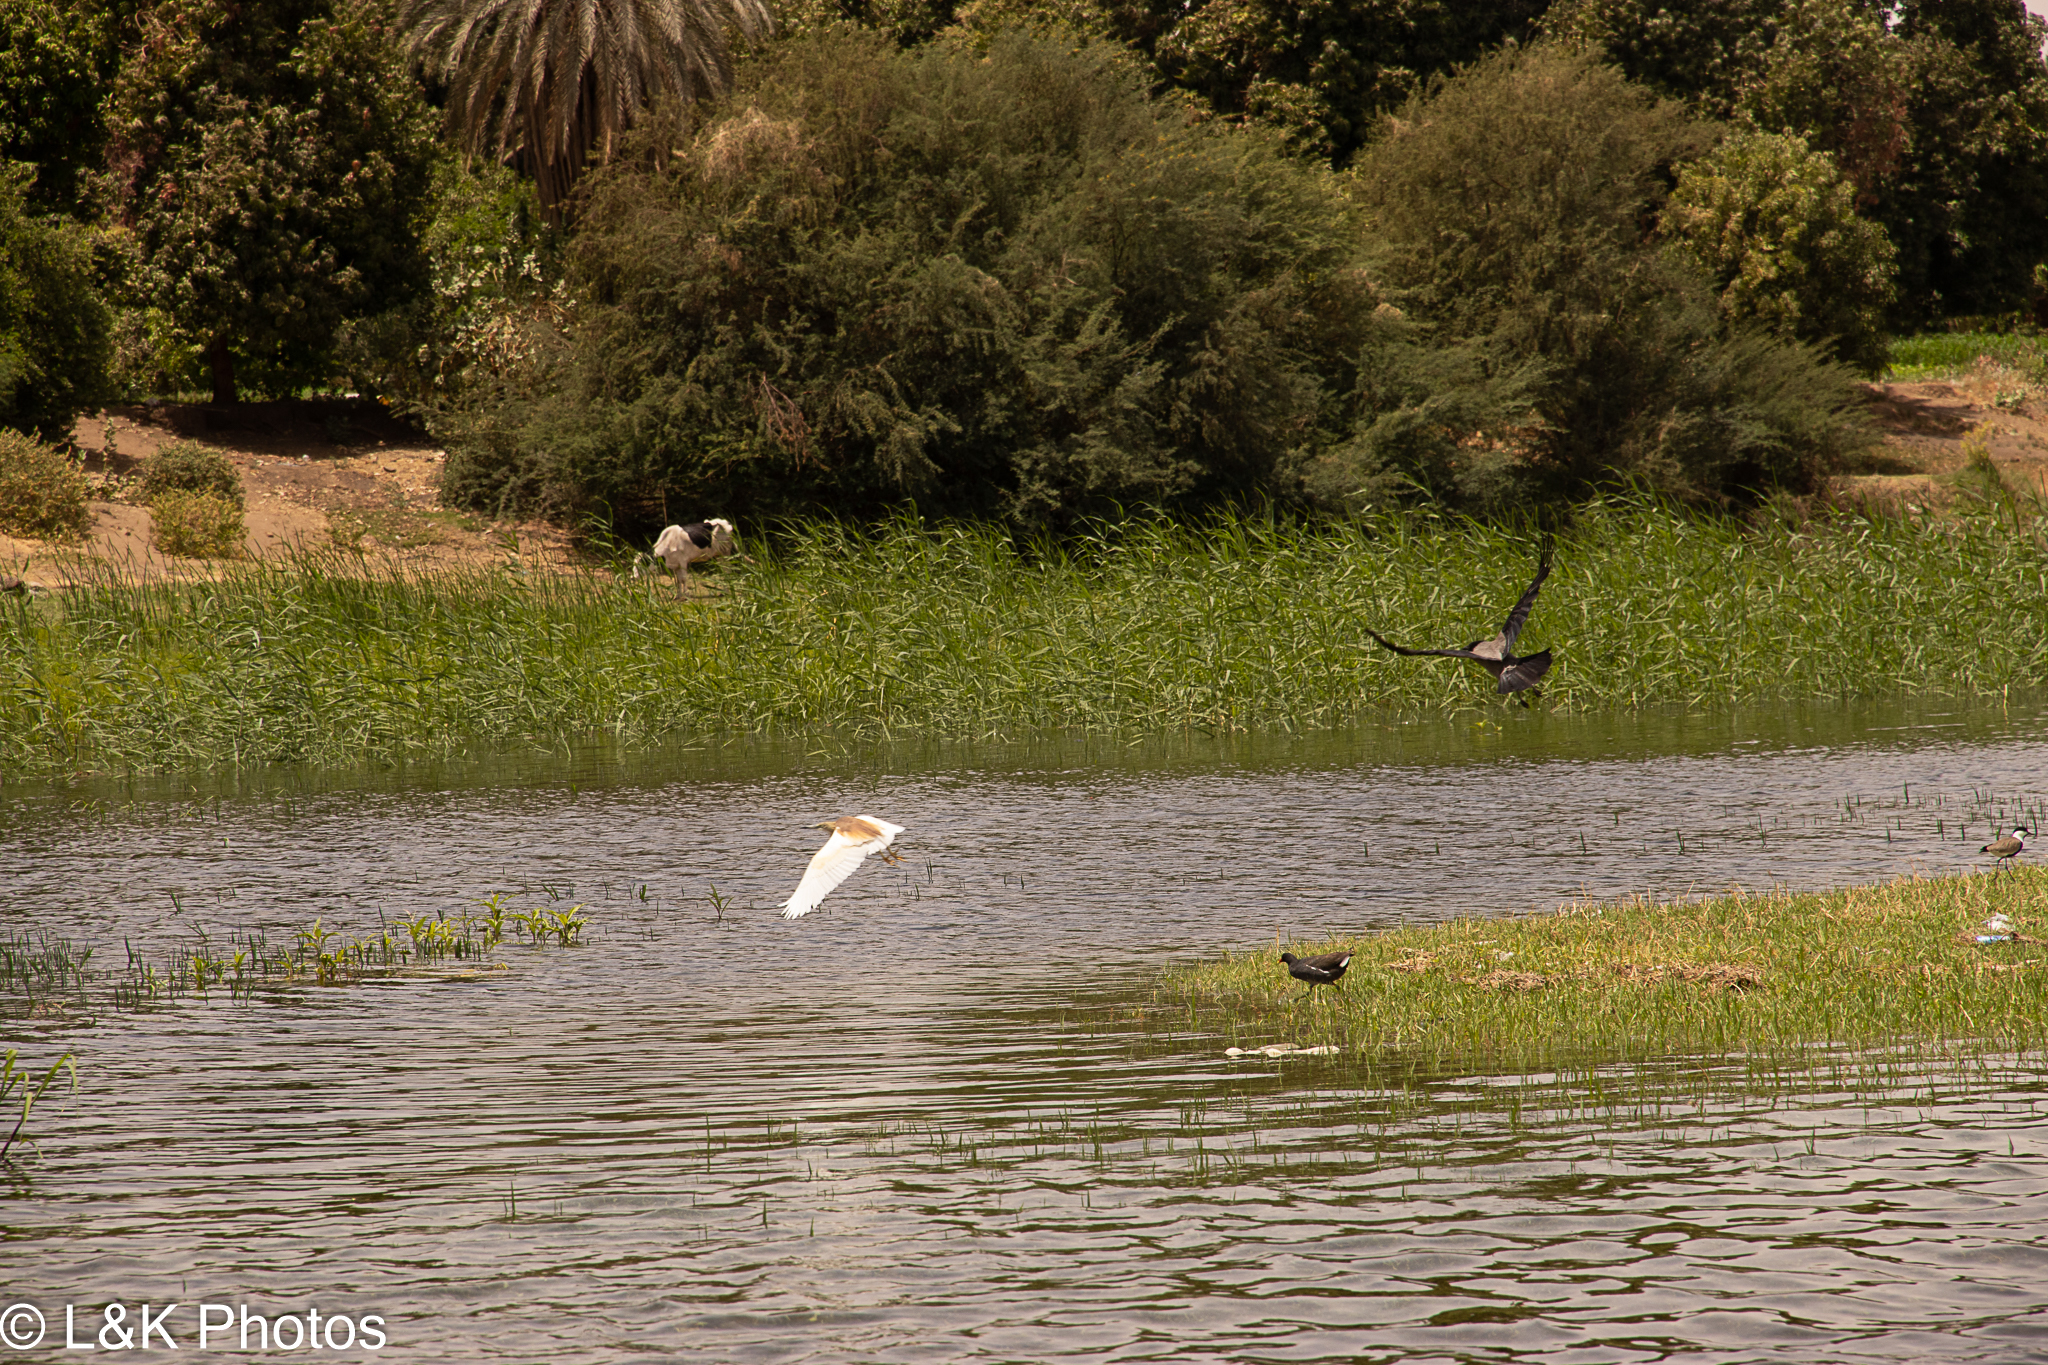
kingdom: Animalia
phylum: Chordata
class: Aves
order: Pelecaniformes
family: Ardeidae
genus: Ardeola
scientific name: Ardeola ralloides
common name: Squacco heron
